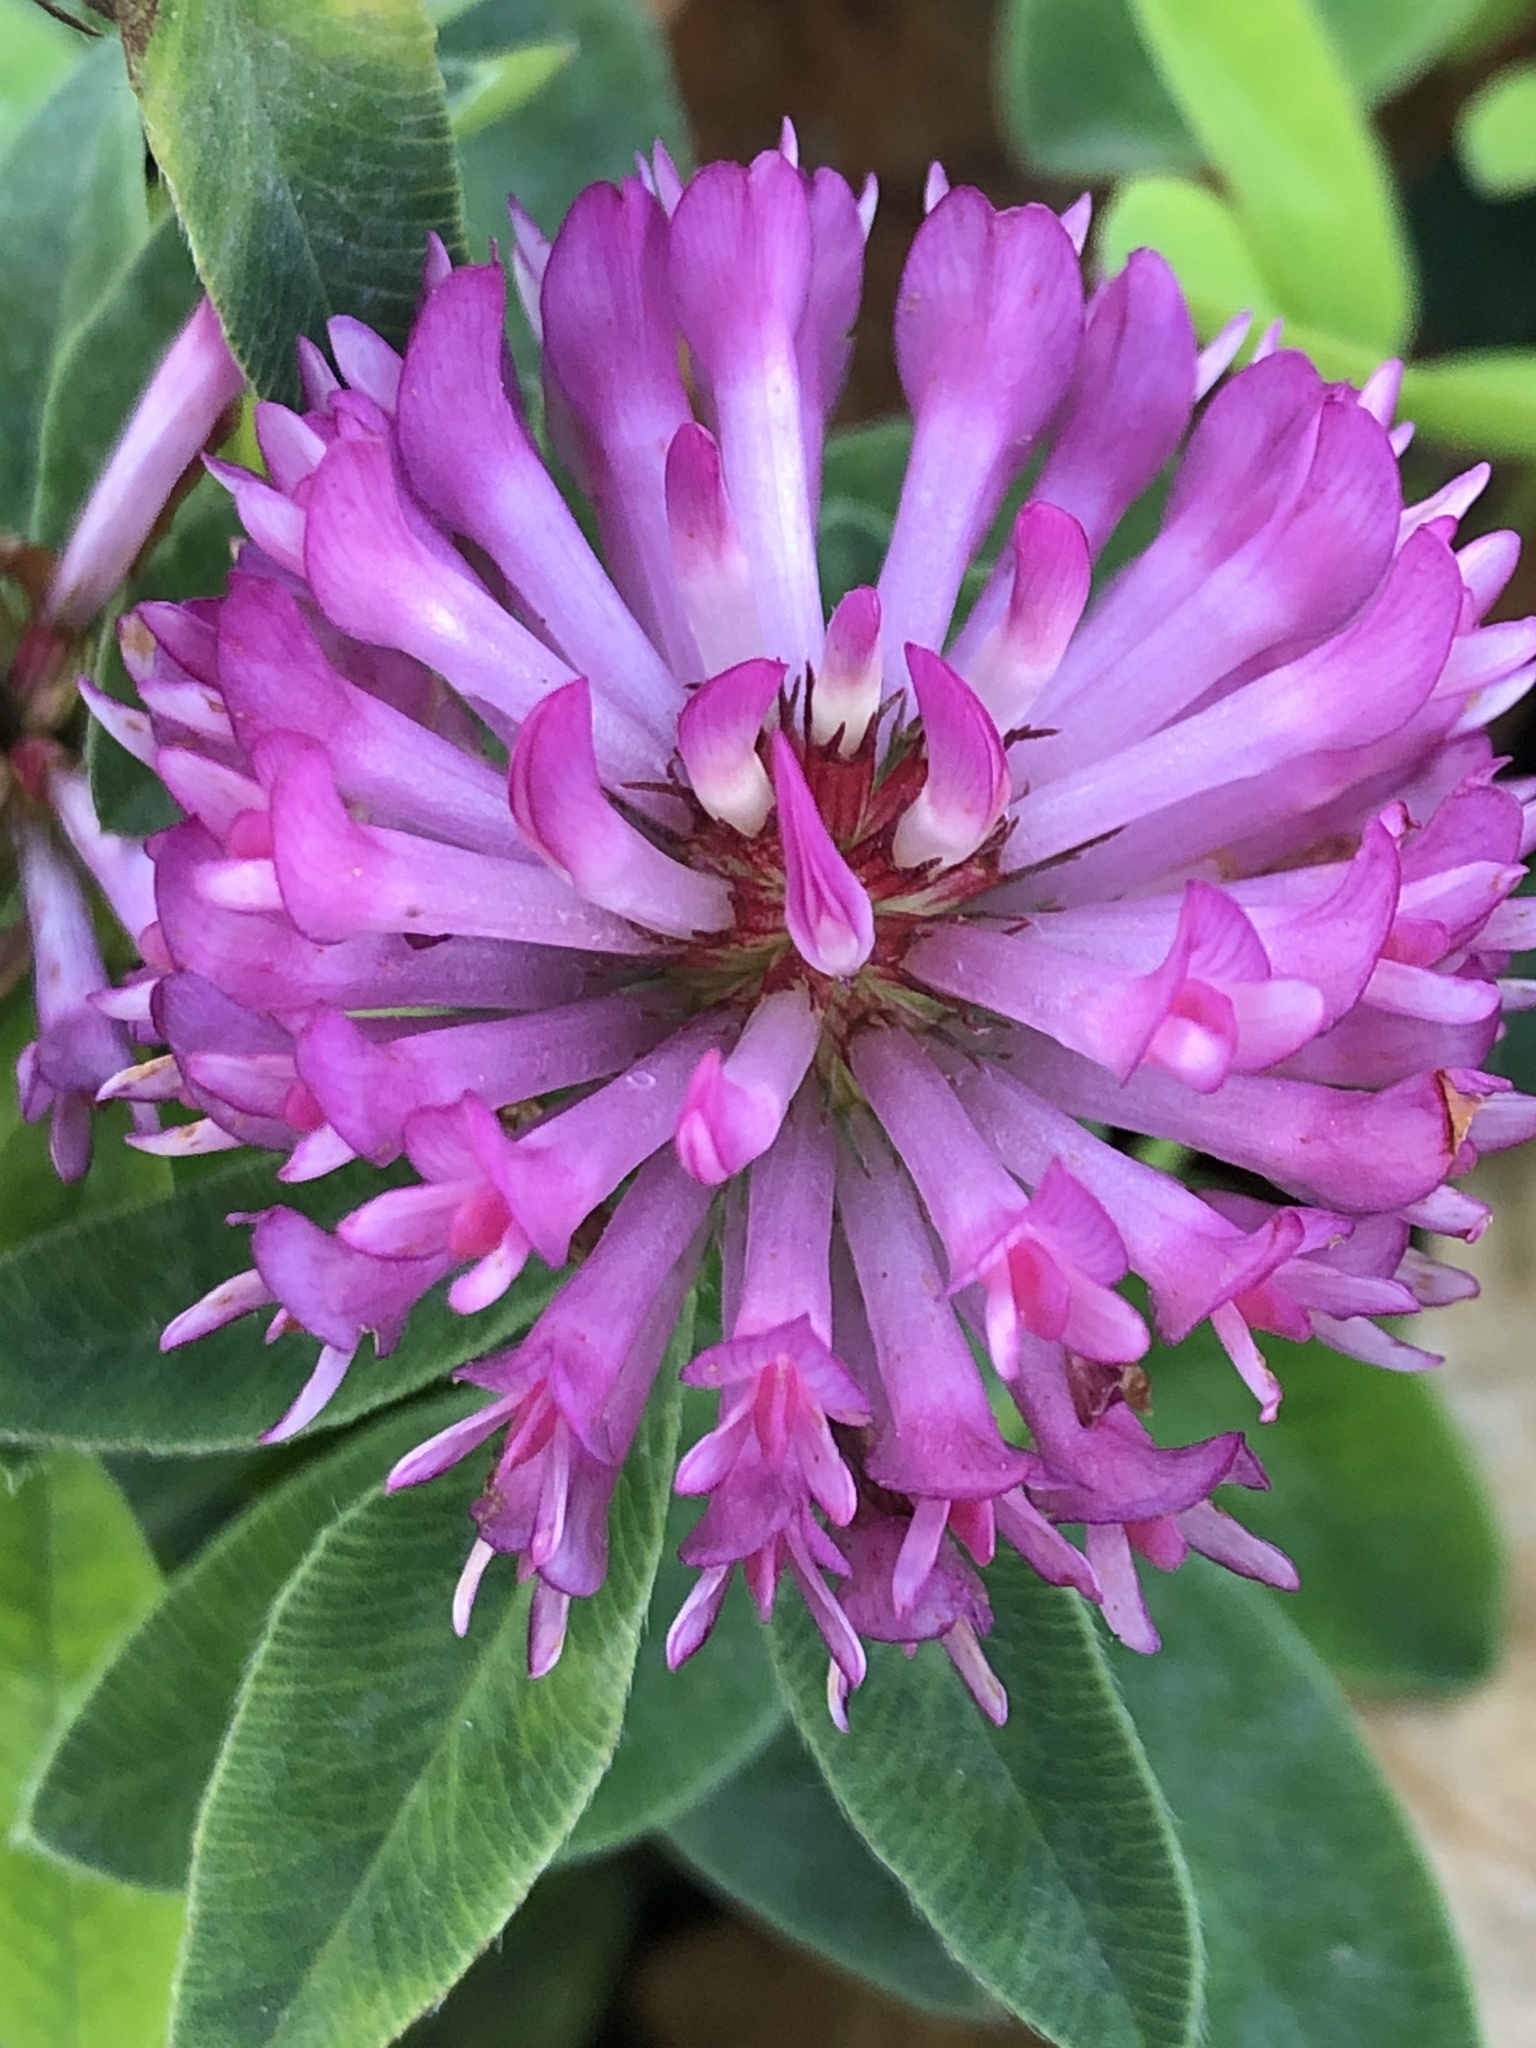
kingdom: Plantae
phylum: Tracheophyta
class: Magnoliopsida
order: Fabales
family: Fabaceae
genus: Trifolium
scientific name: Trifolium medium
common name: Zigzag clover
